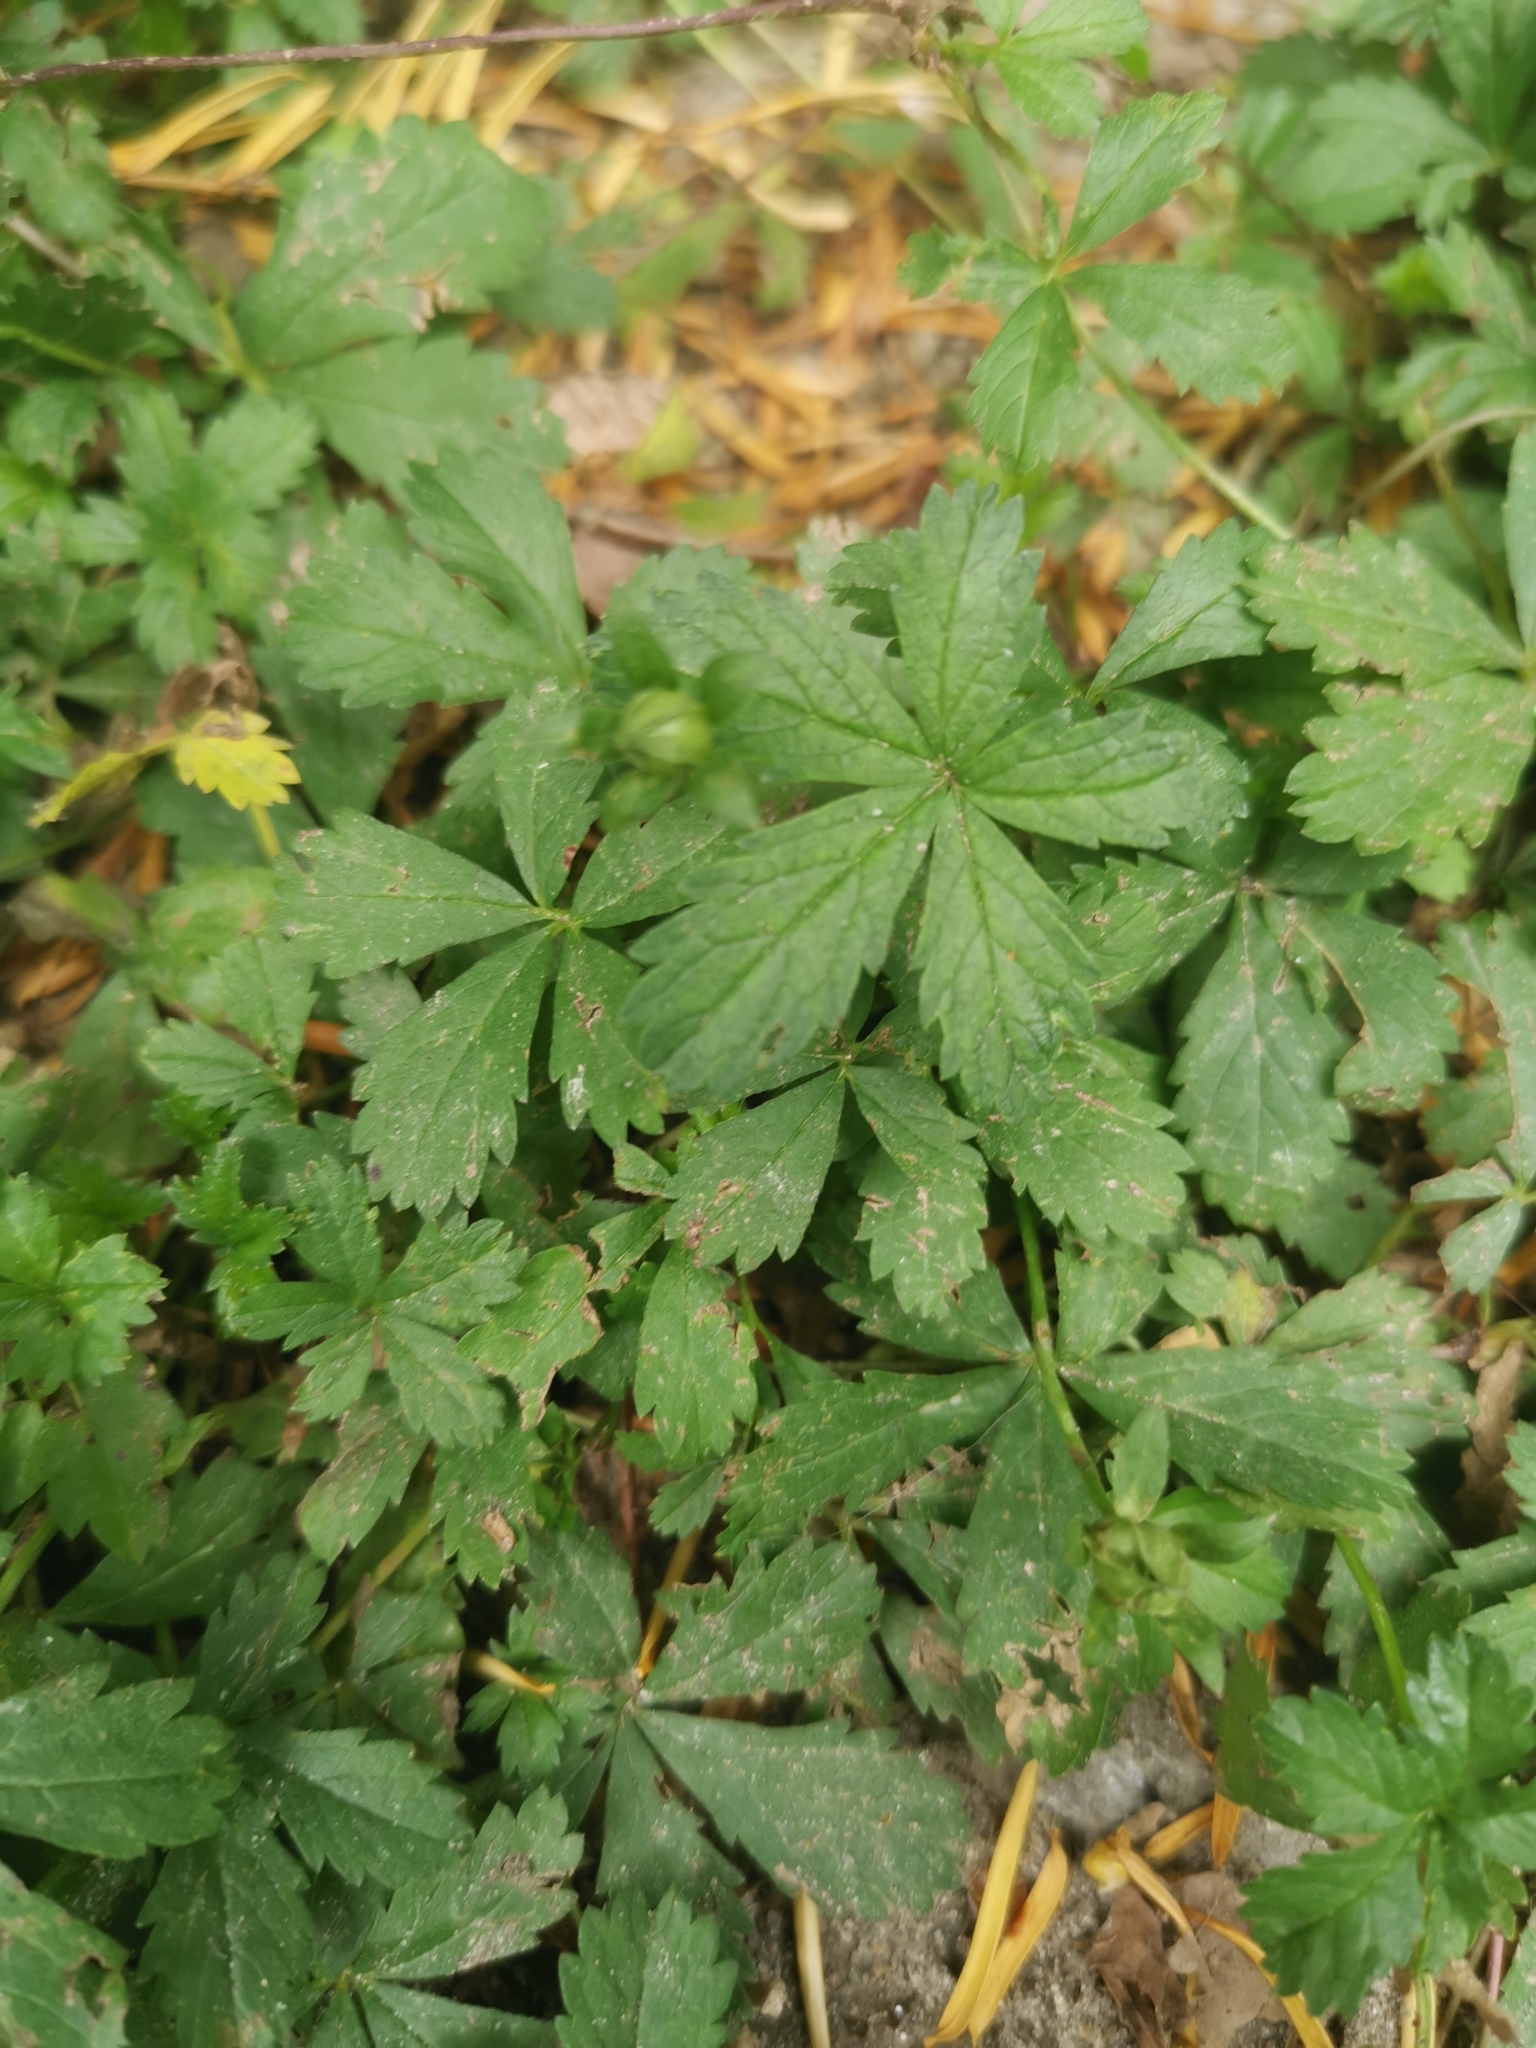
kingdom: Plantae
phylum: Tracheophyta
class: Magnoliopsida
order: Rosales
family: Rosaceae
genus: Potentilla
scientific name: Potentilla reptans
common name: Creeping cinquefoil
